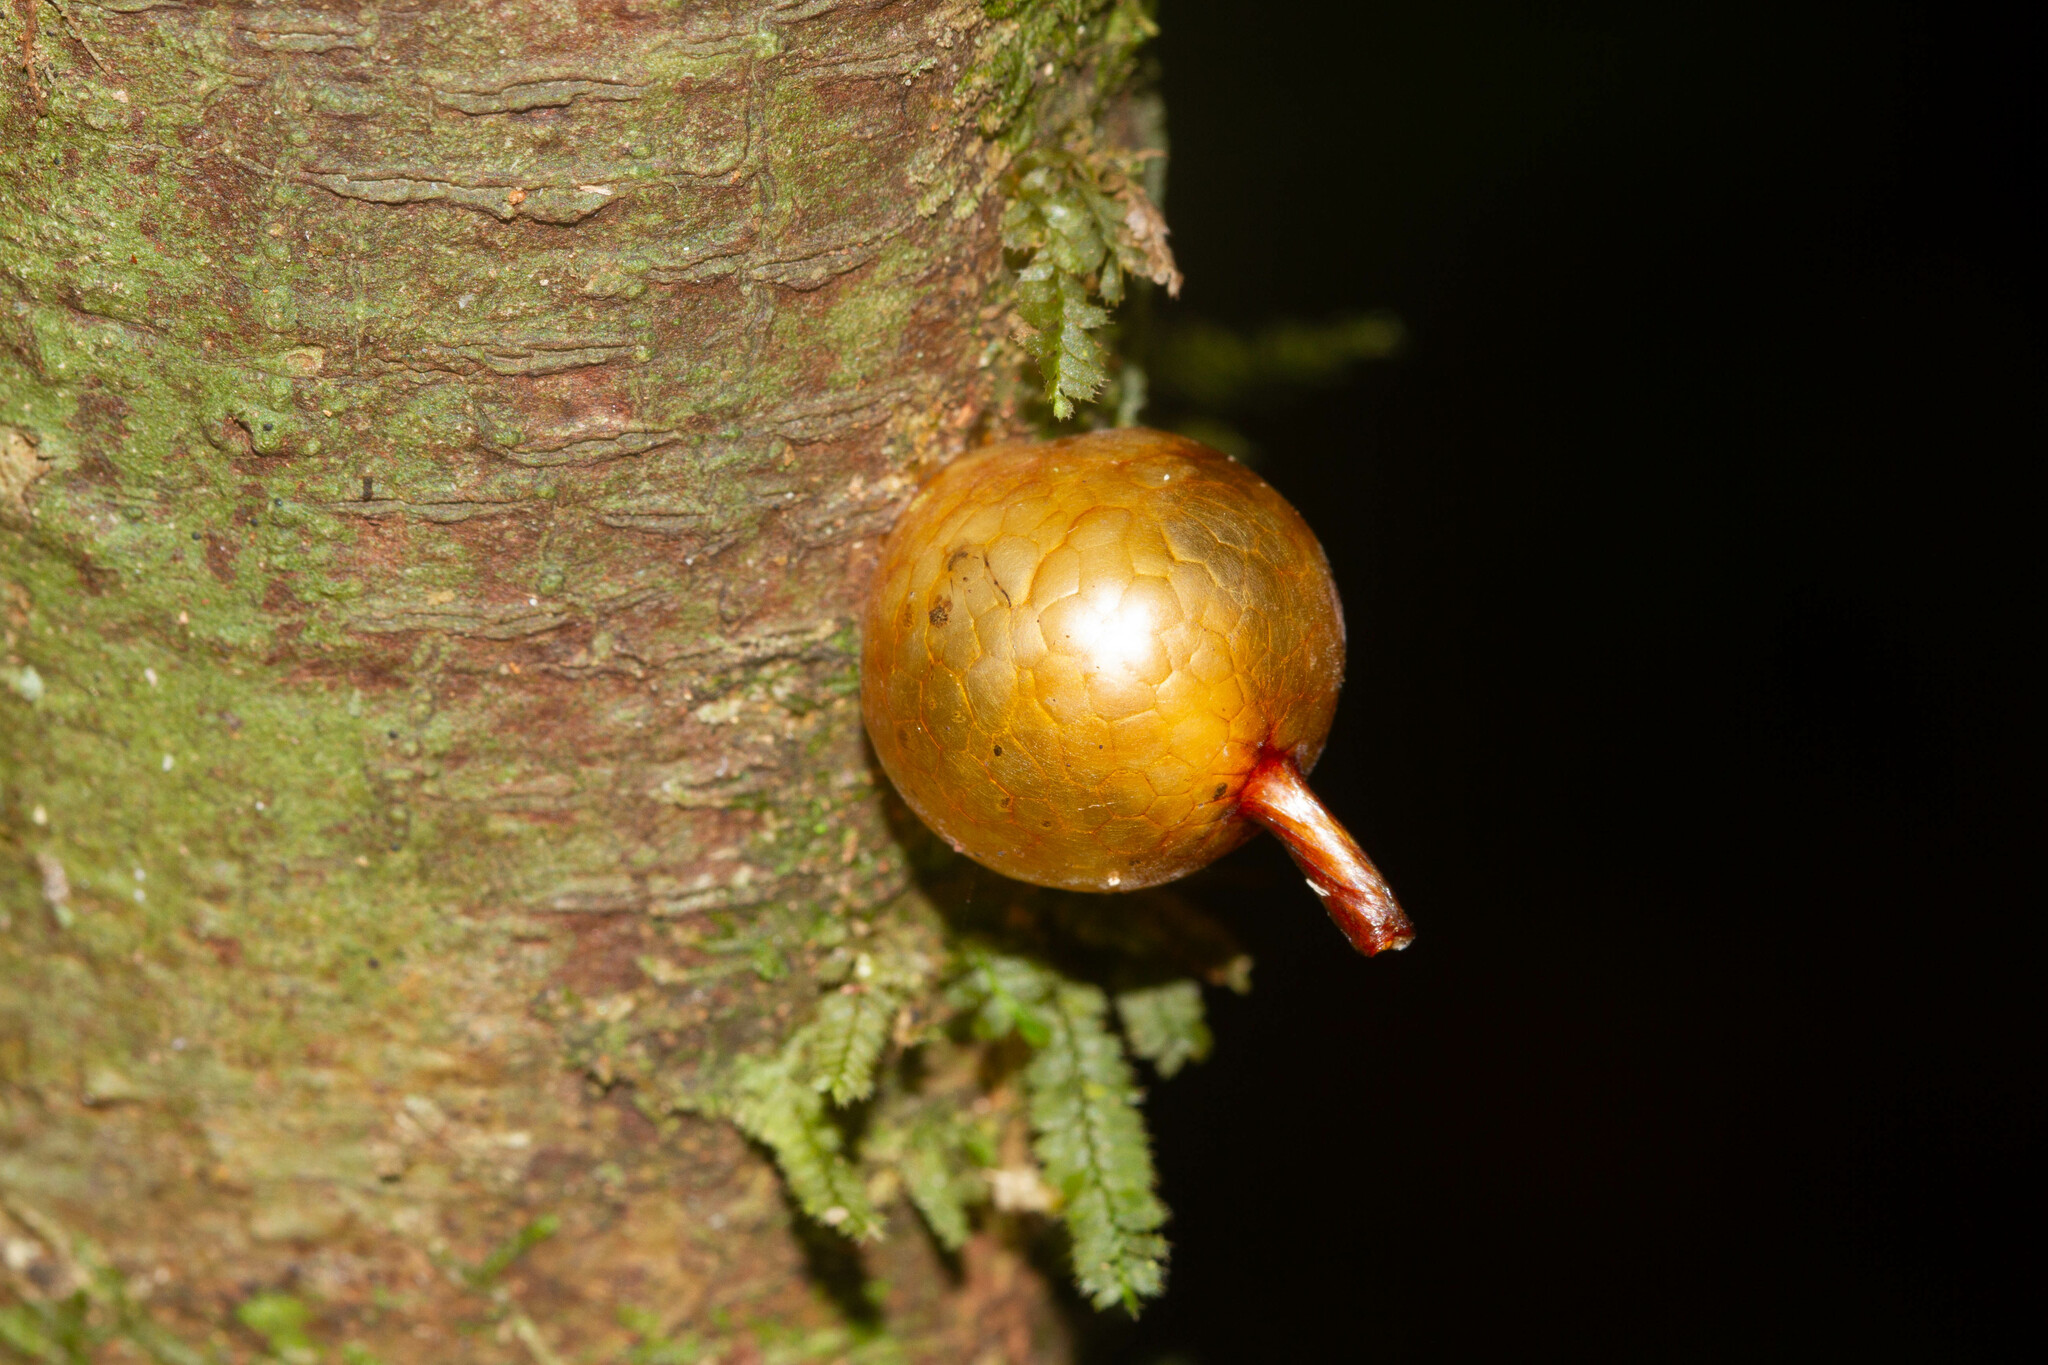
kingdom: Animalia
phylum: Arthropoda
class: Insecta
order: Mantodea
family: Liturgusidae
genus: Liturgusa
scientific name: Liturgusa maroni
